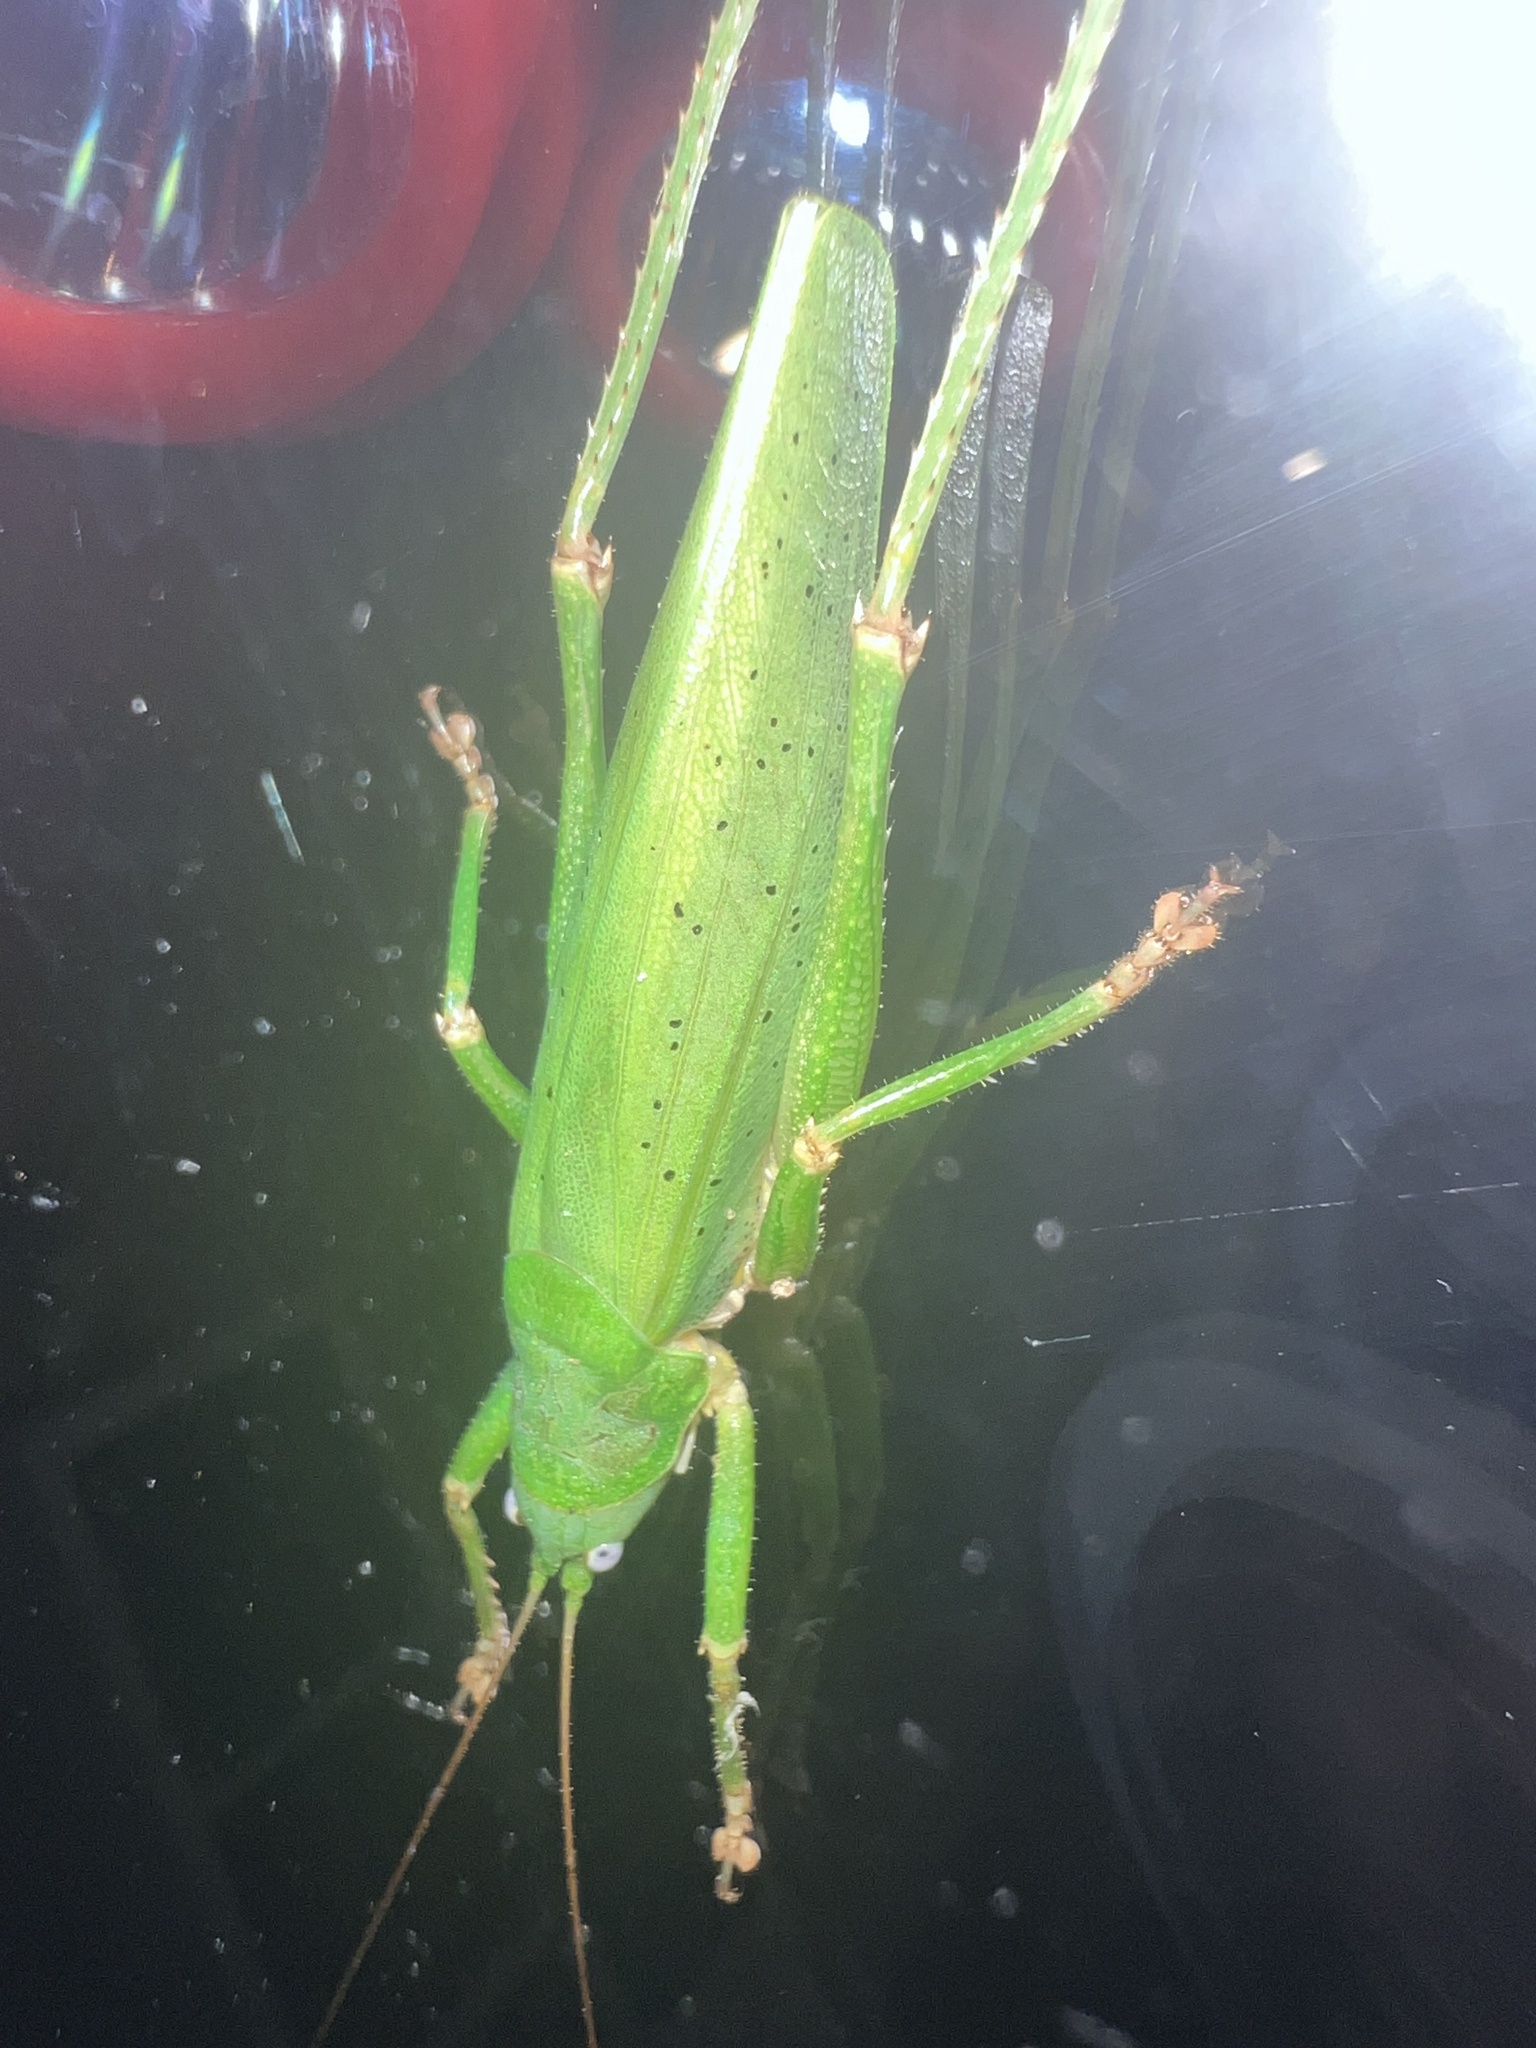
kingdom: Animalia
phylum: Arthropoda
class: Insecta
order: Orthoptera
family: Tettigoniidae
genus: Austrosalomona
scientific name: Austrosalomona destructor
